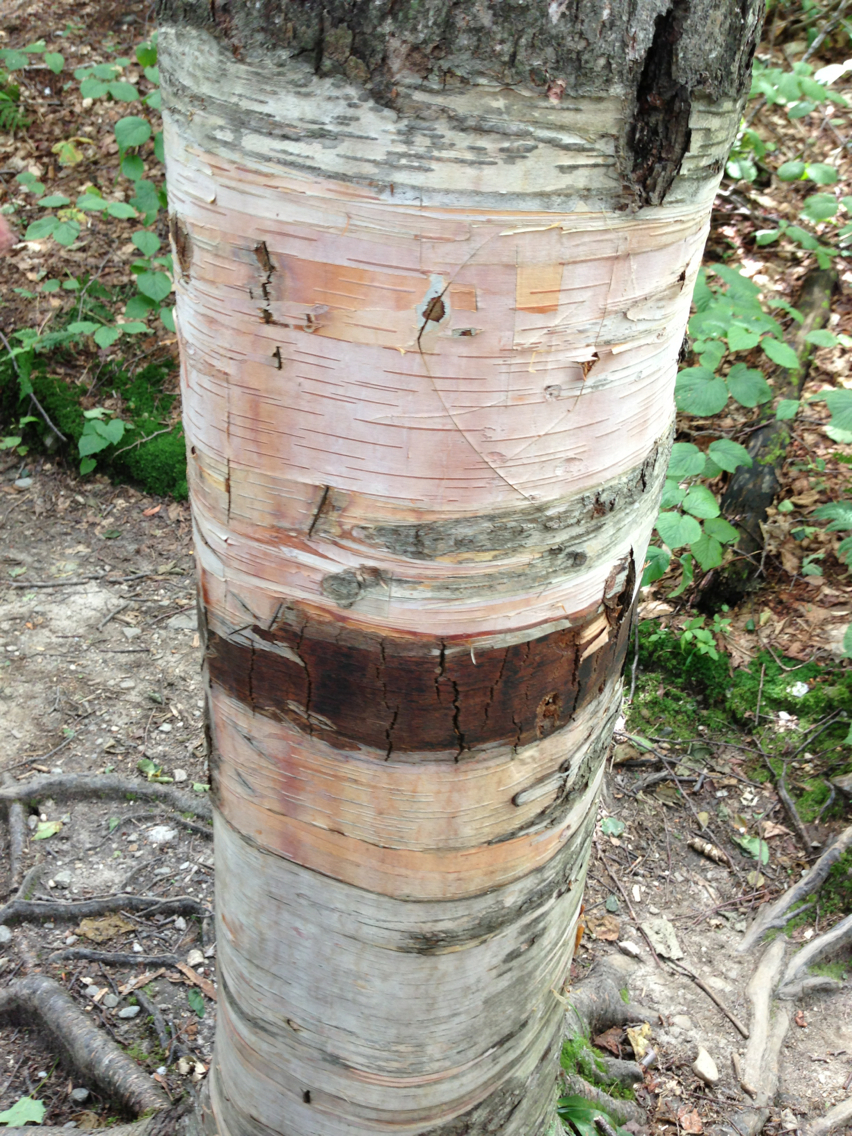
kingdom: Plantae
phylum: Tracheophyta
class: Magnoliopsida
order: Fagales
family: Betulaceae
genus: Betula
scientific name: Betula cordifolia
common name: Mountain white birch
